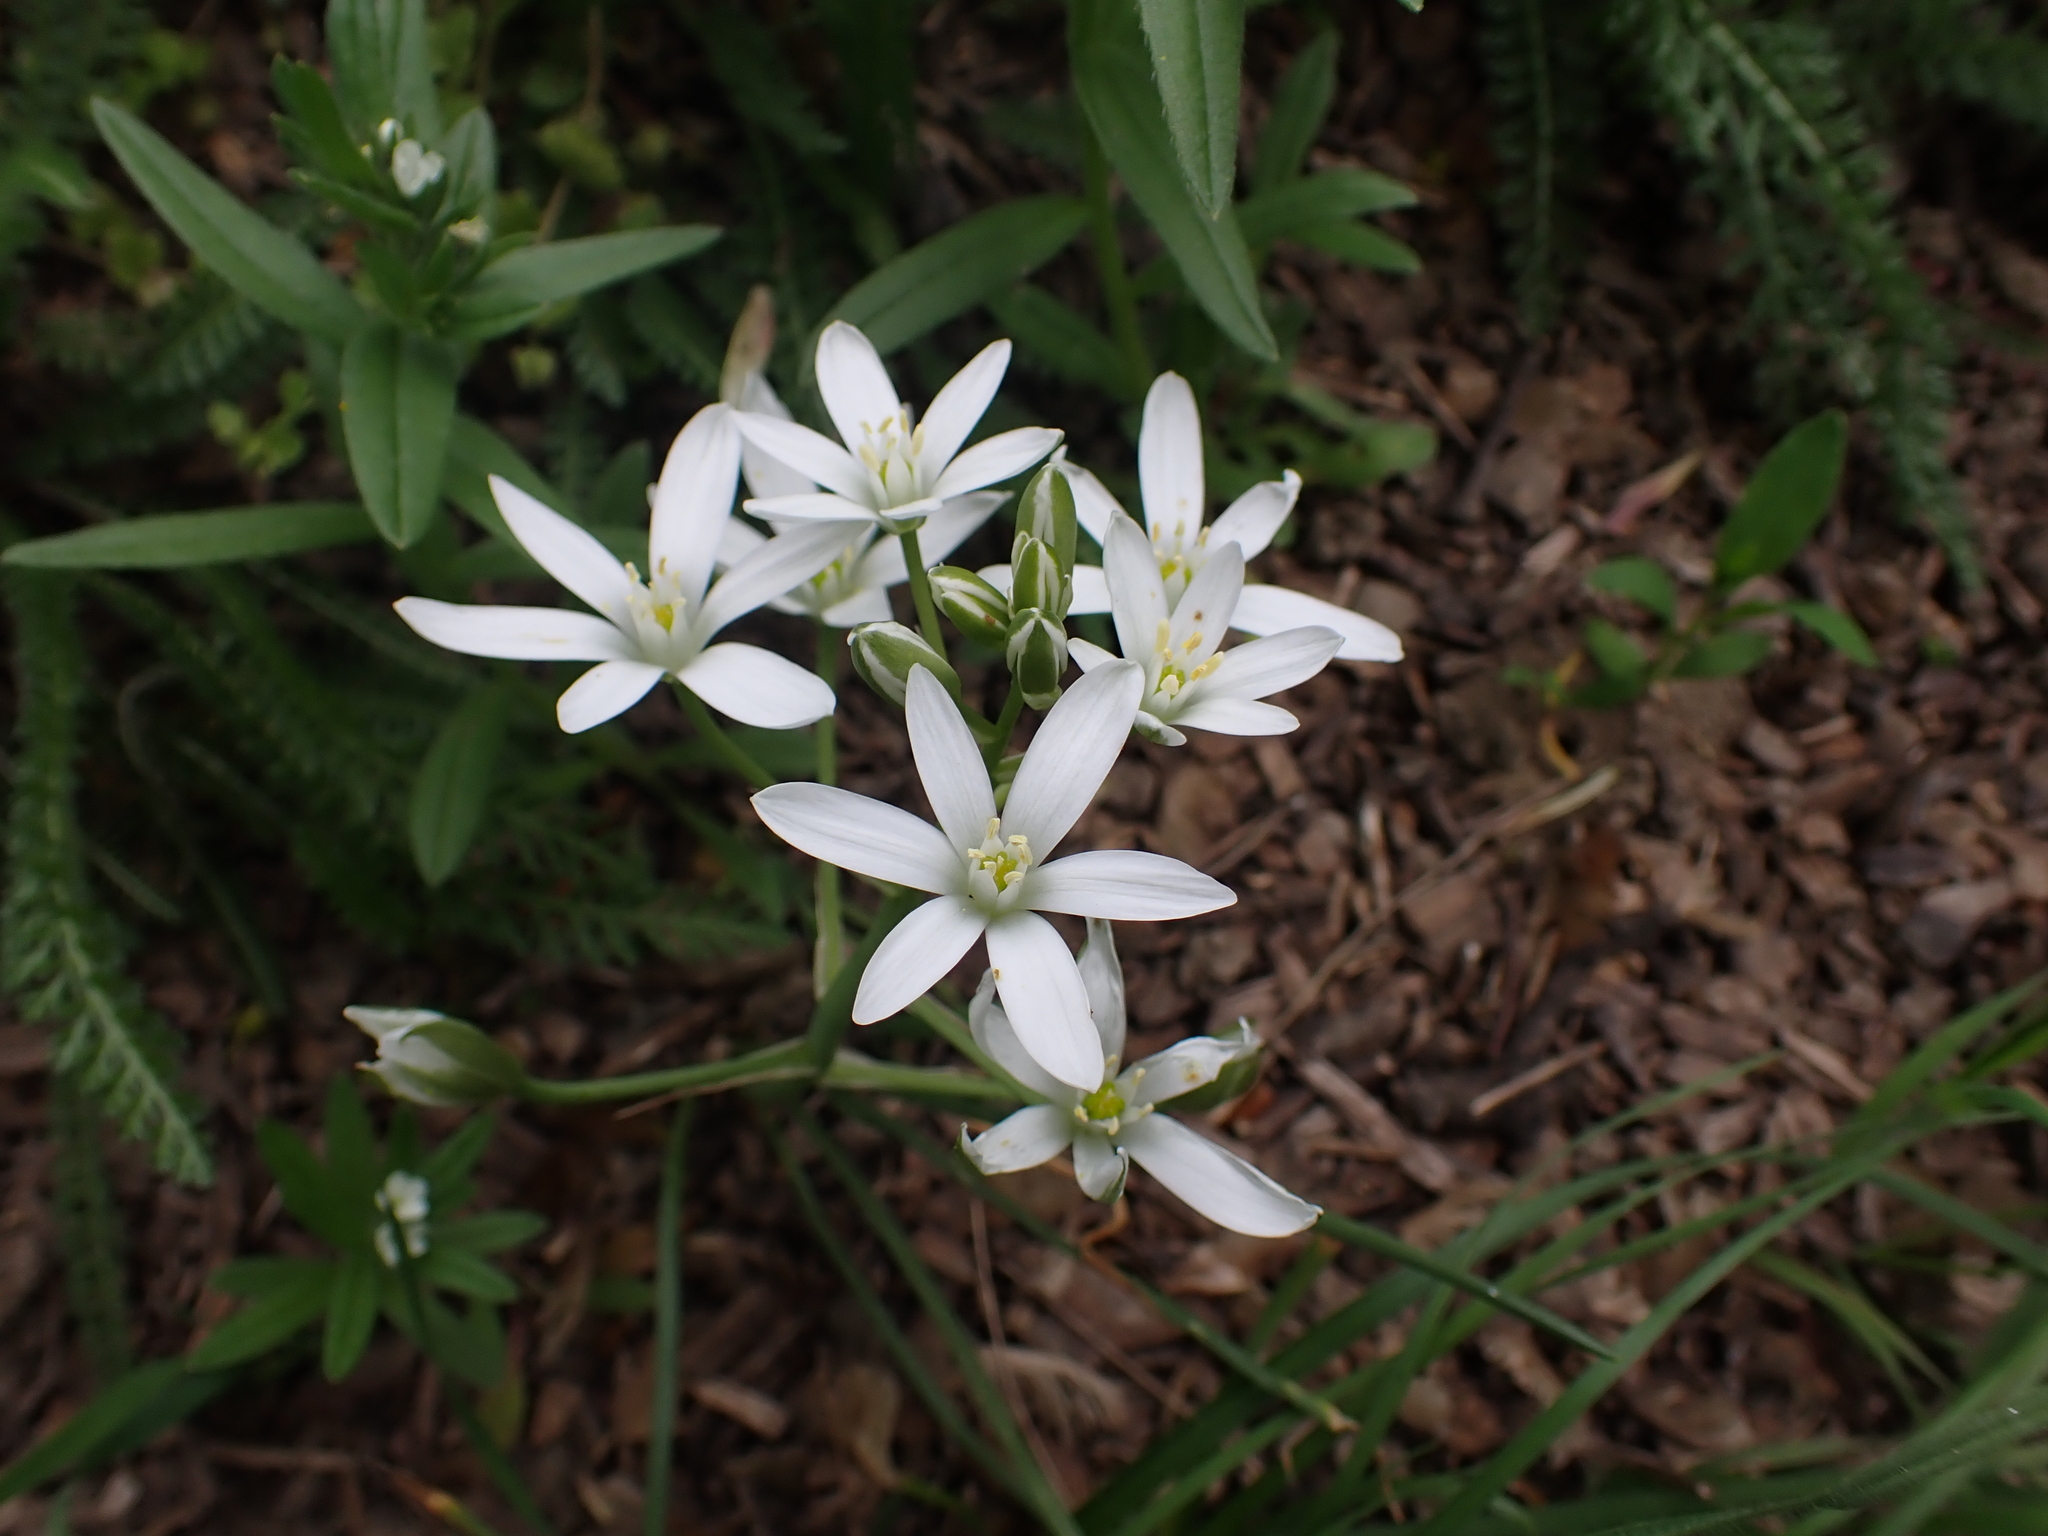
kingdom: Plantae
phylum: Tracheophyta
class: Liliopsida
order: Asparagales
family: Asparagaceae
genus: Ornithogalum
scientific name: Ornithogalum orthophyllum
